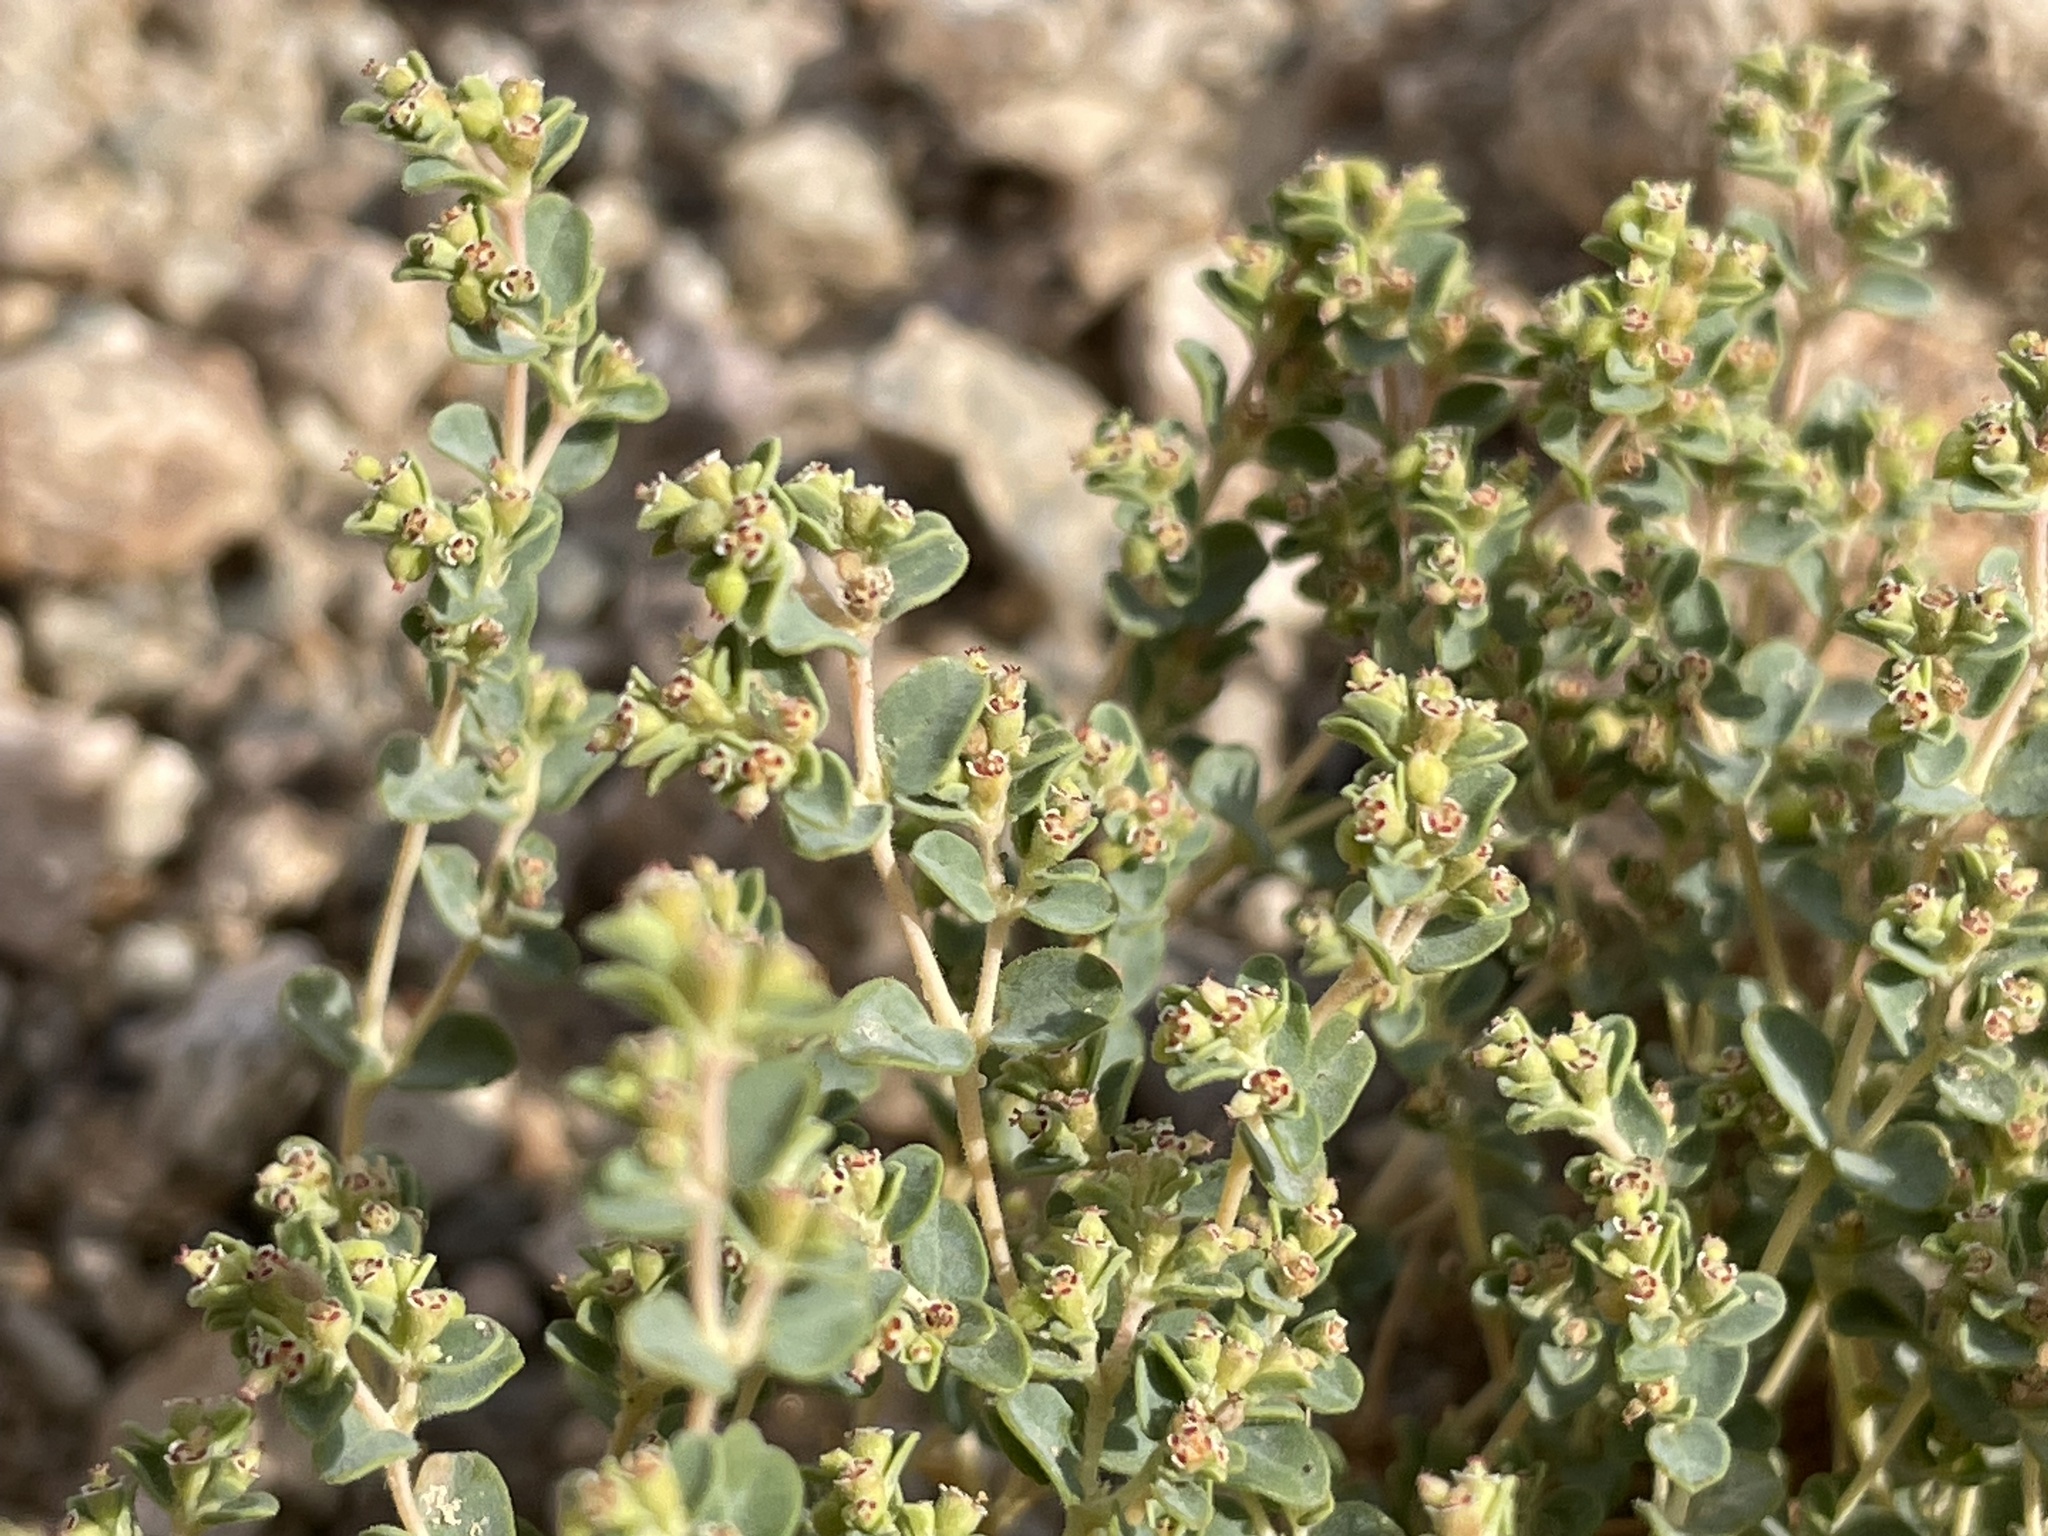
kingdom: Plantae
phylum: Tracheophyta
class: Magnoliopsida
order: Malpighiales
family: Euphorbiaceae
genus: Euphorbia
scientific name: Euphorbia polycarpa
